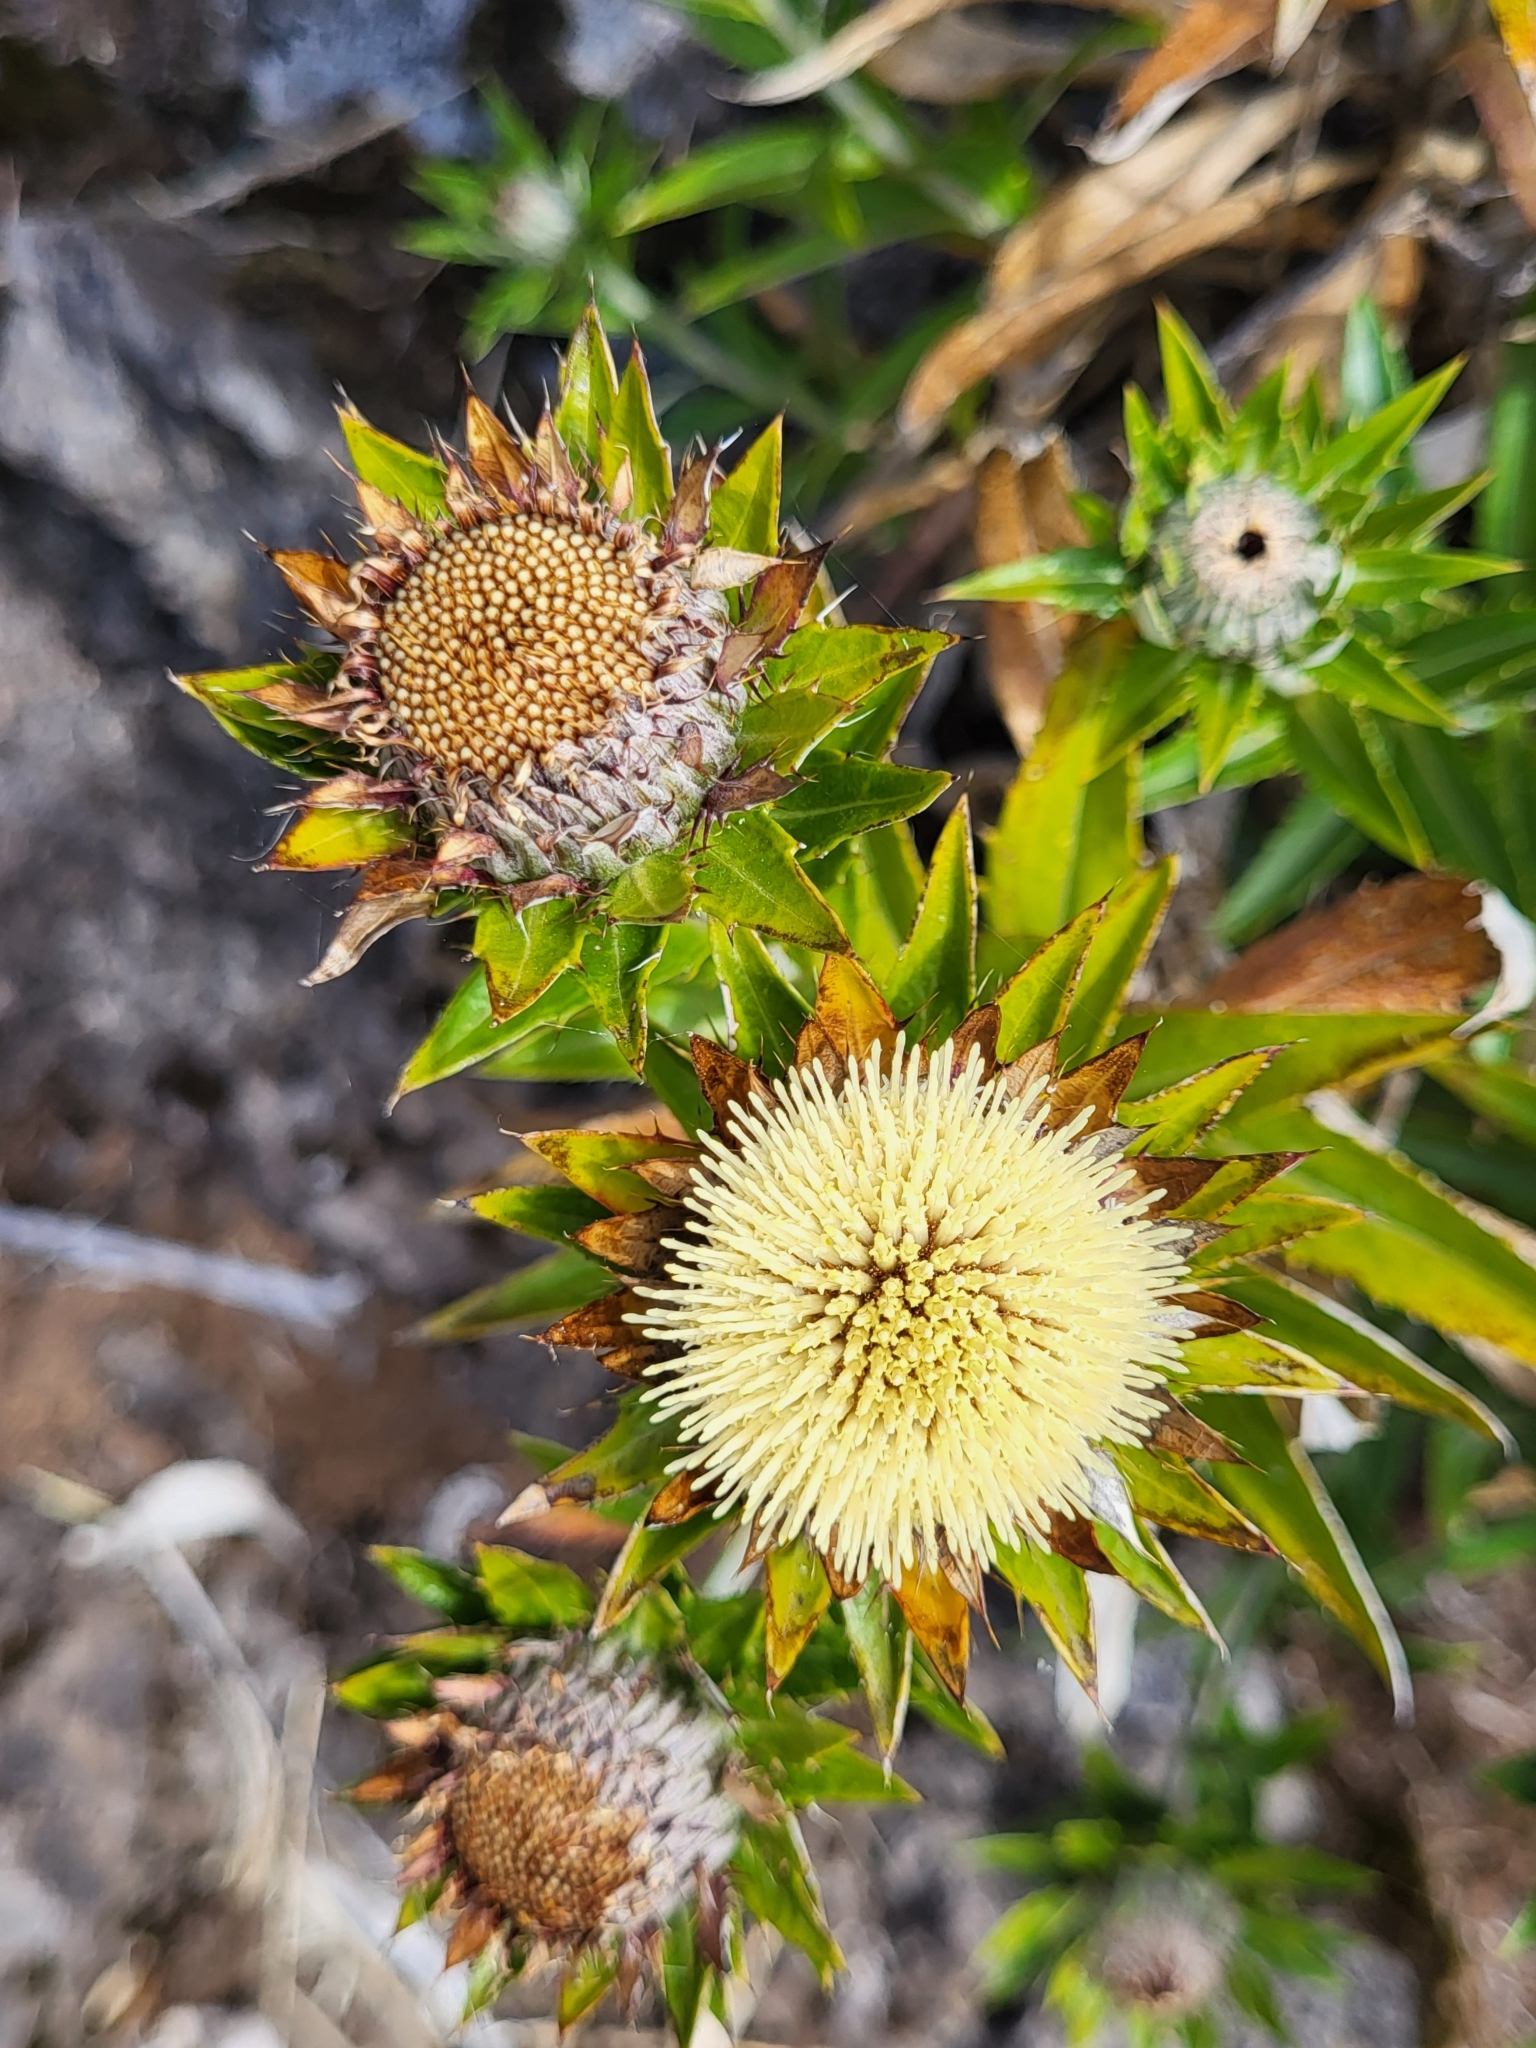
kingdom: Plantae
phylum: Tracheophyta
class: Magnoliopsida
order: Asterales
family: Asteraceae
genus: Carlina
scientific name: Carlina salicifolia
